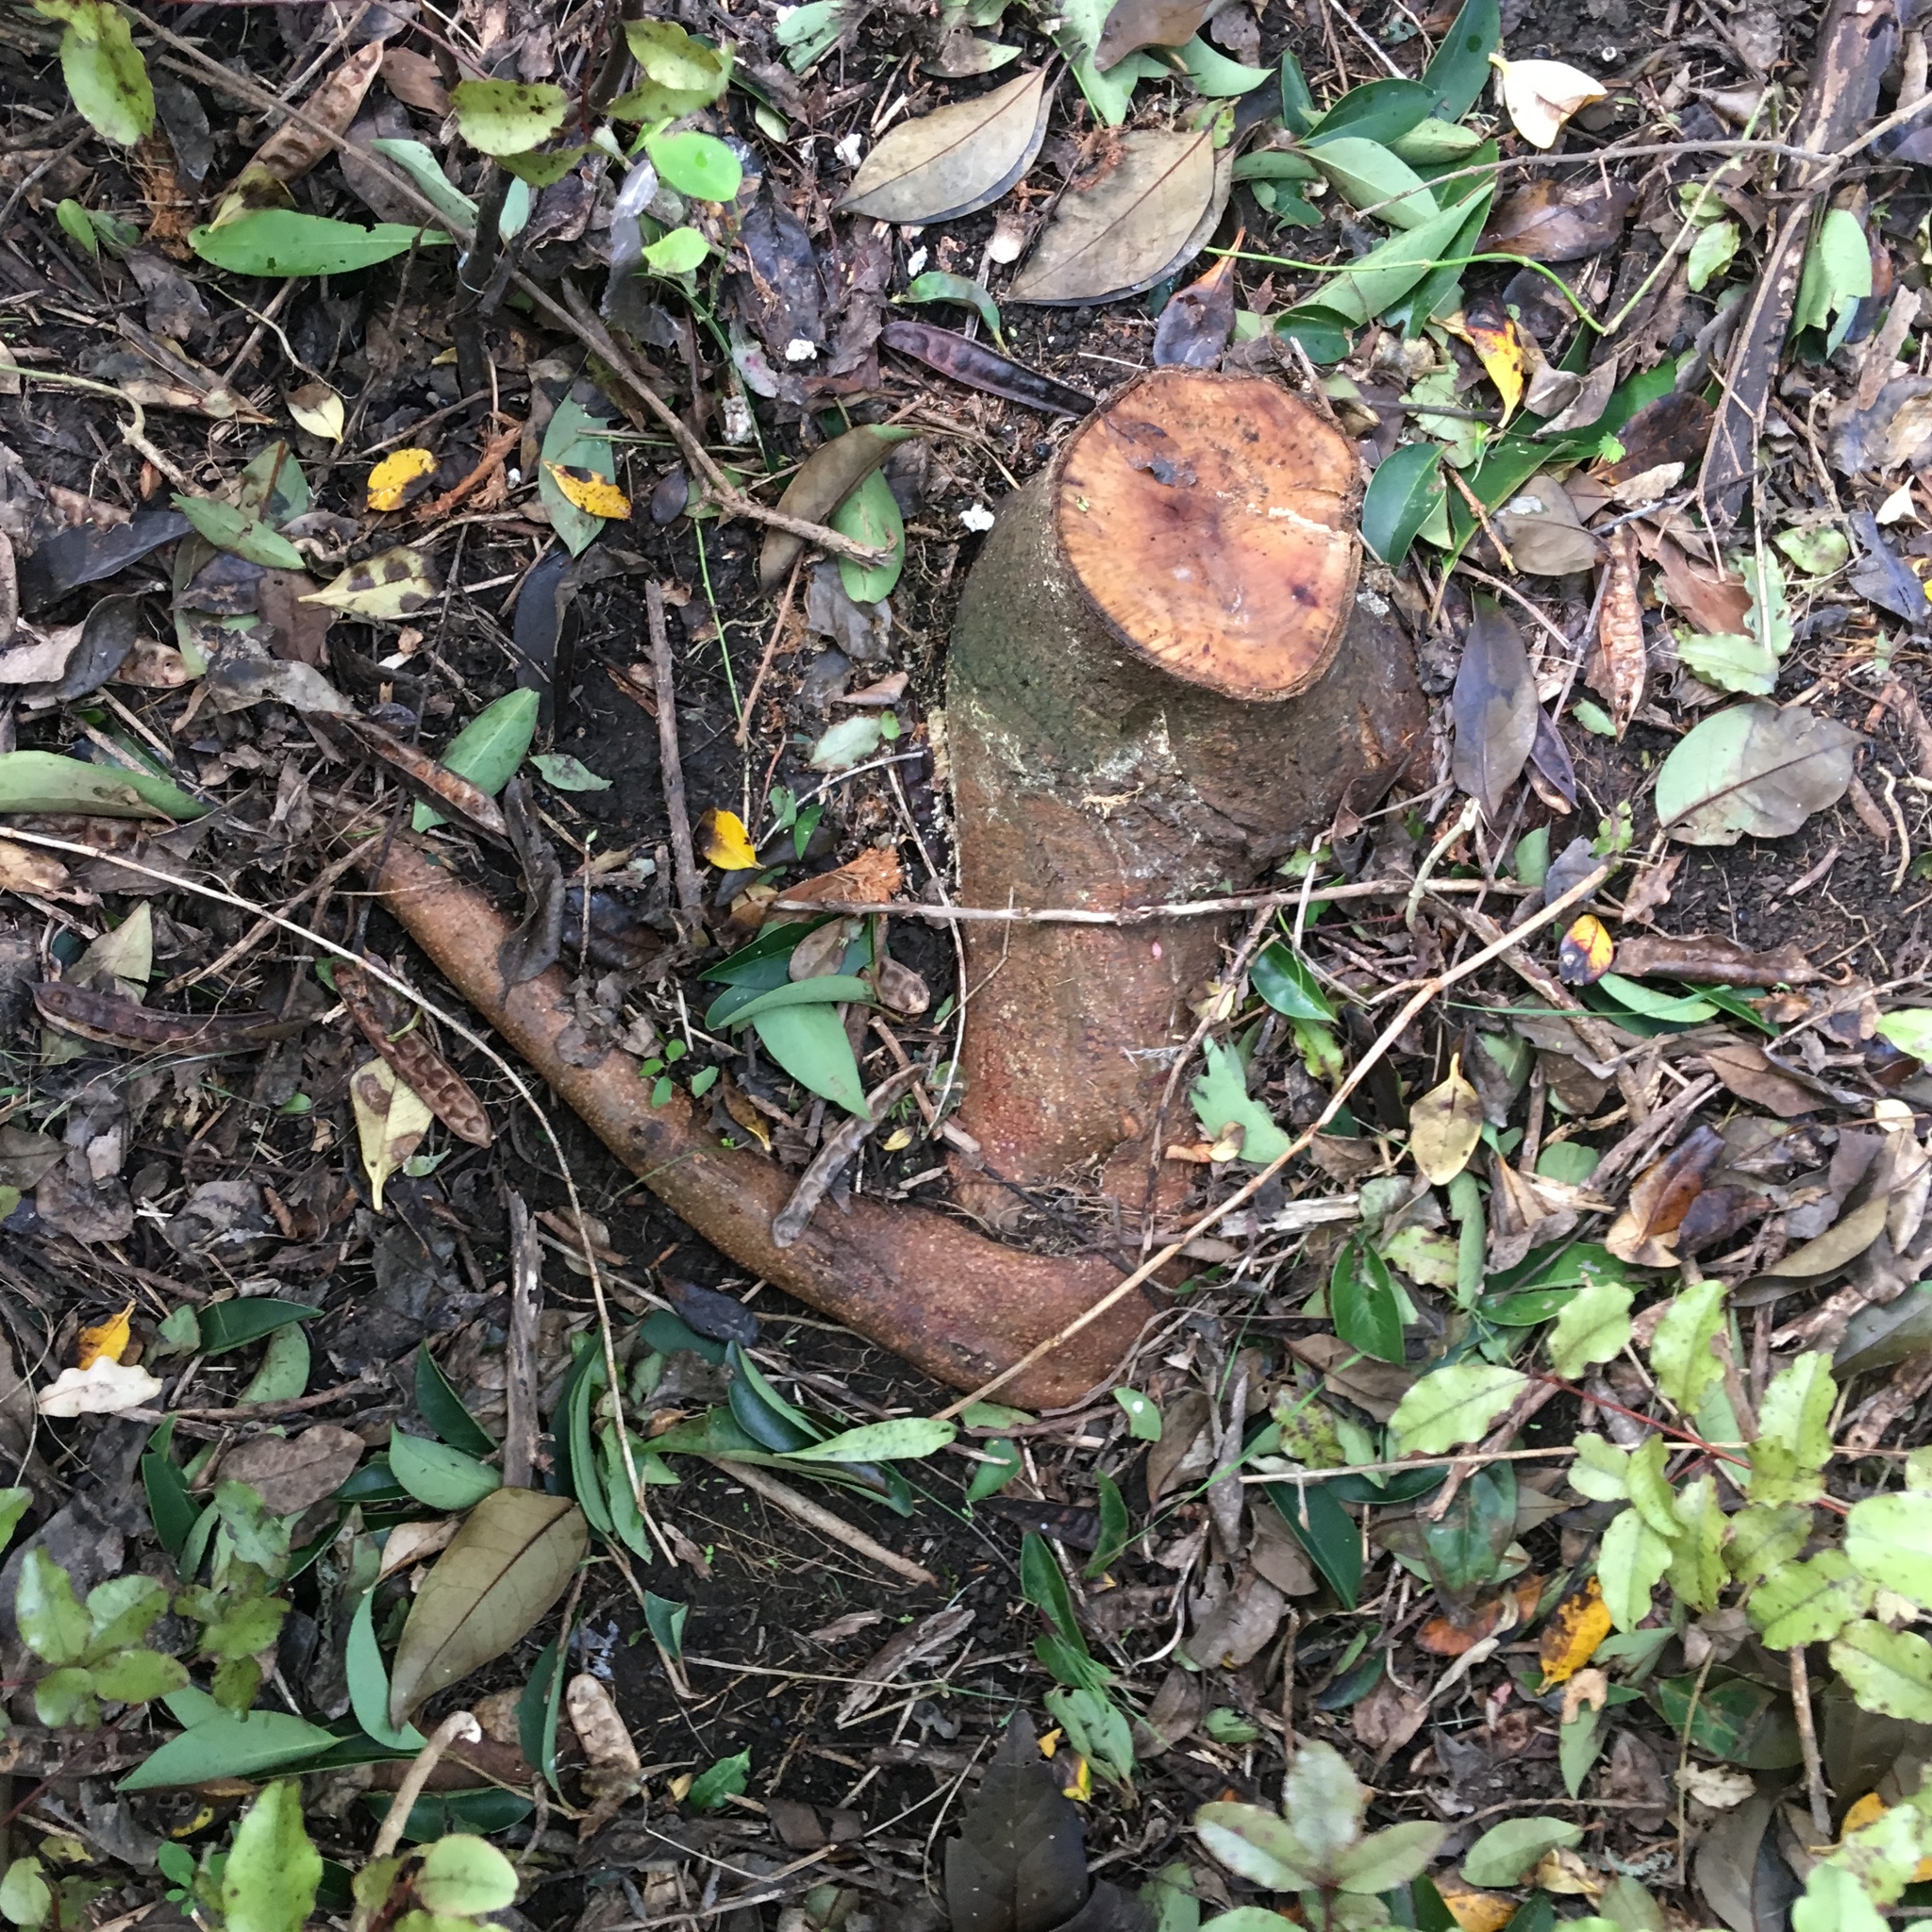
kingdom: Plantae
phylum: Tracheophyta
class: Magnoliopsida
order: Fabales
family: Fabaceae
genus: Paraserianthes
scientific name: Paraserianthes lophantha
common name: Plume albizia
